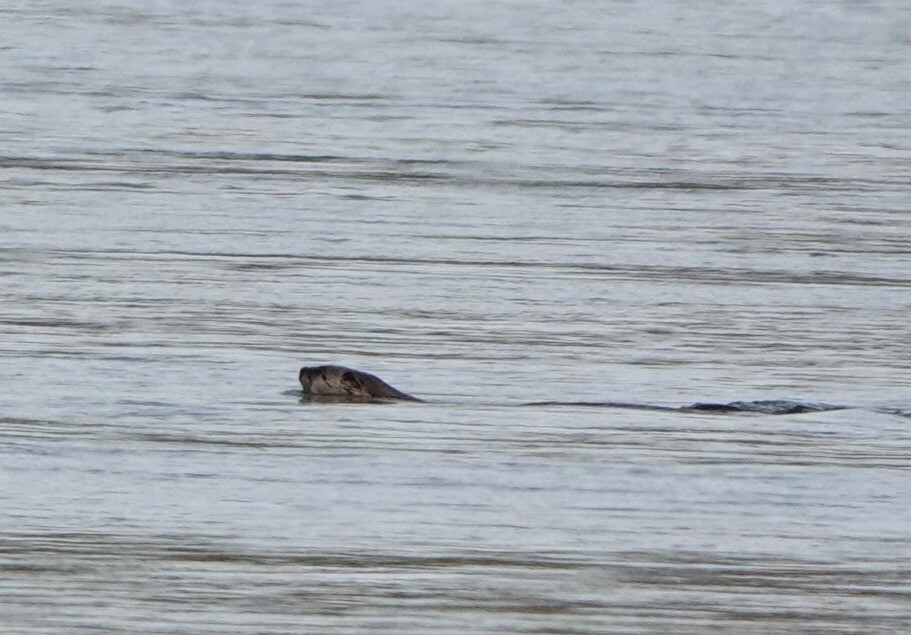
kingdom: Animalia
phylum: Chordata
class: Mammalia
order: Carnivora
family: Mustelidae
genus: Lontra
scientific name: Lontra canadensis
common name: North american river otter
